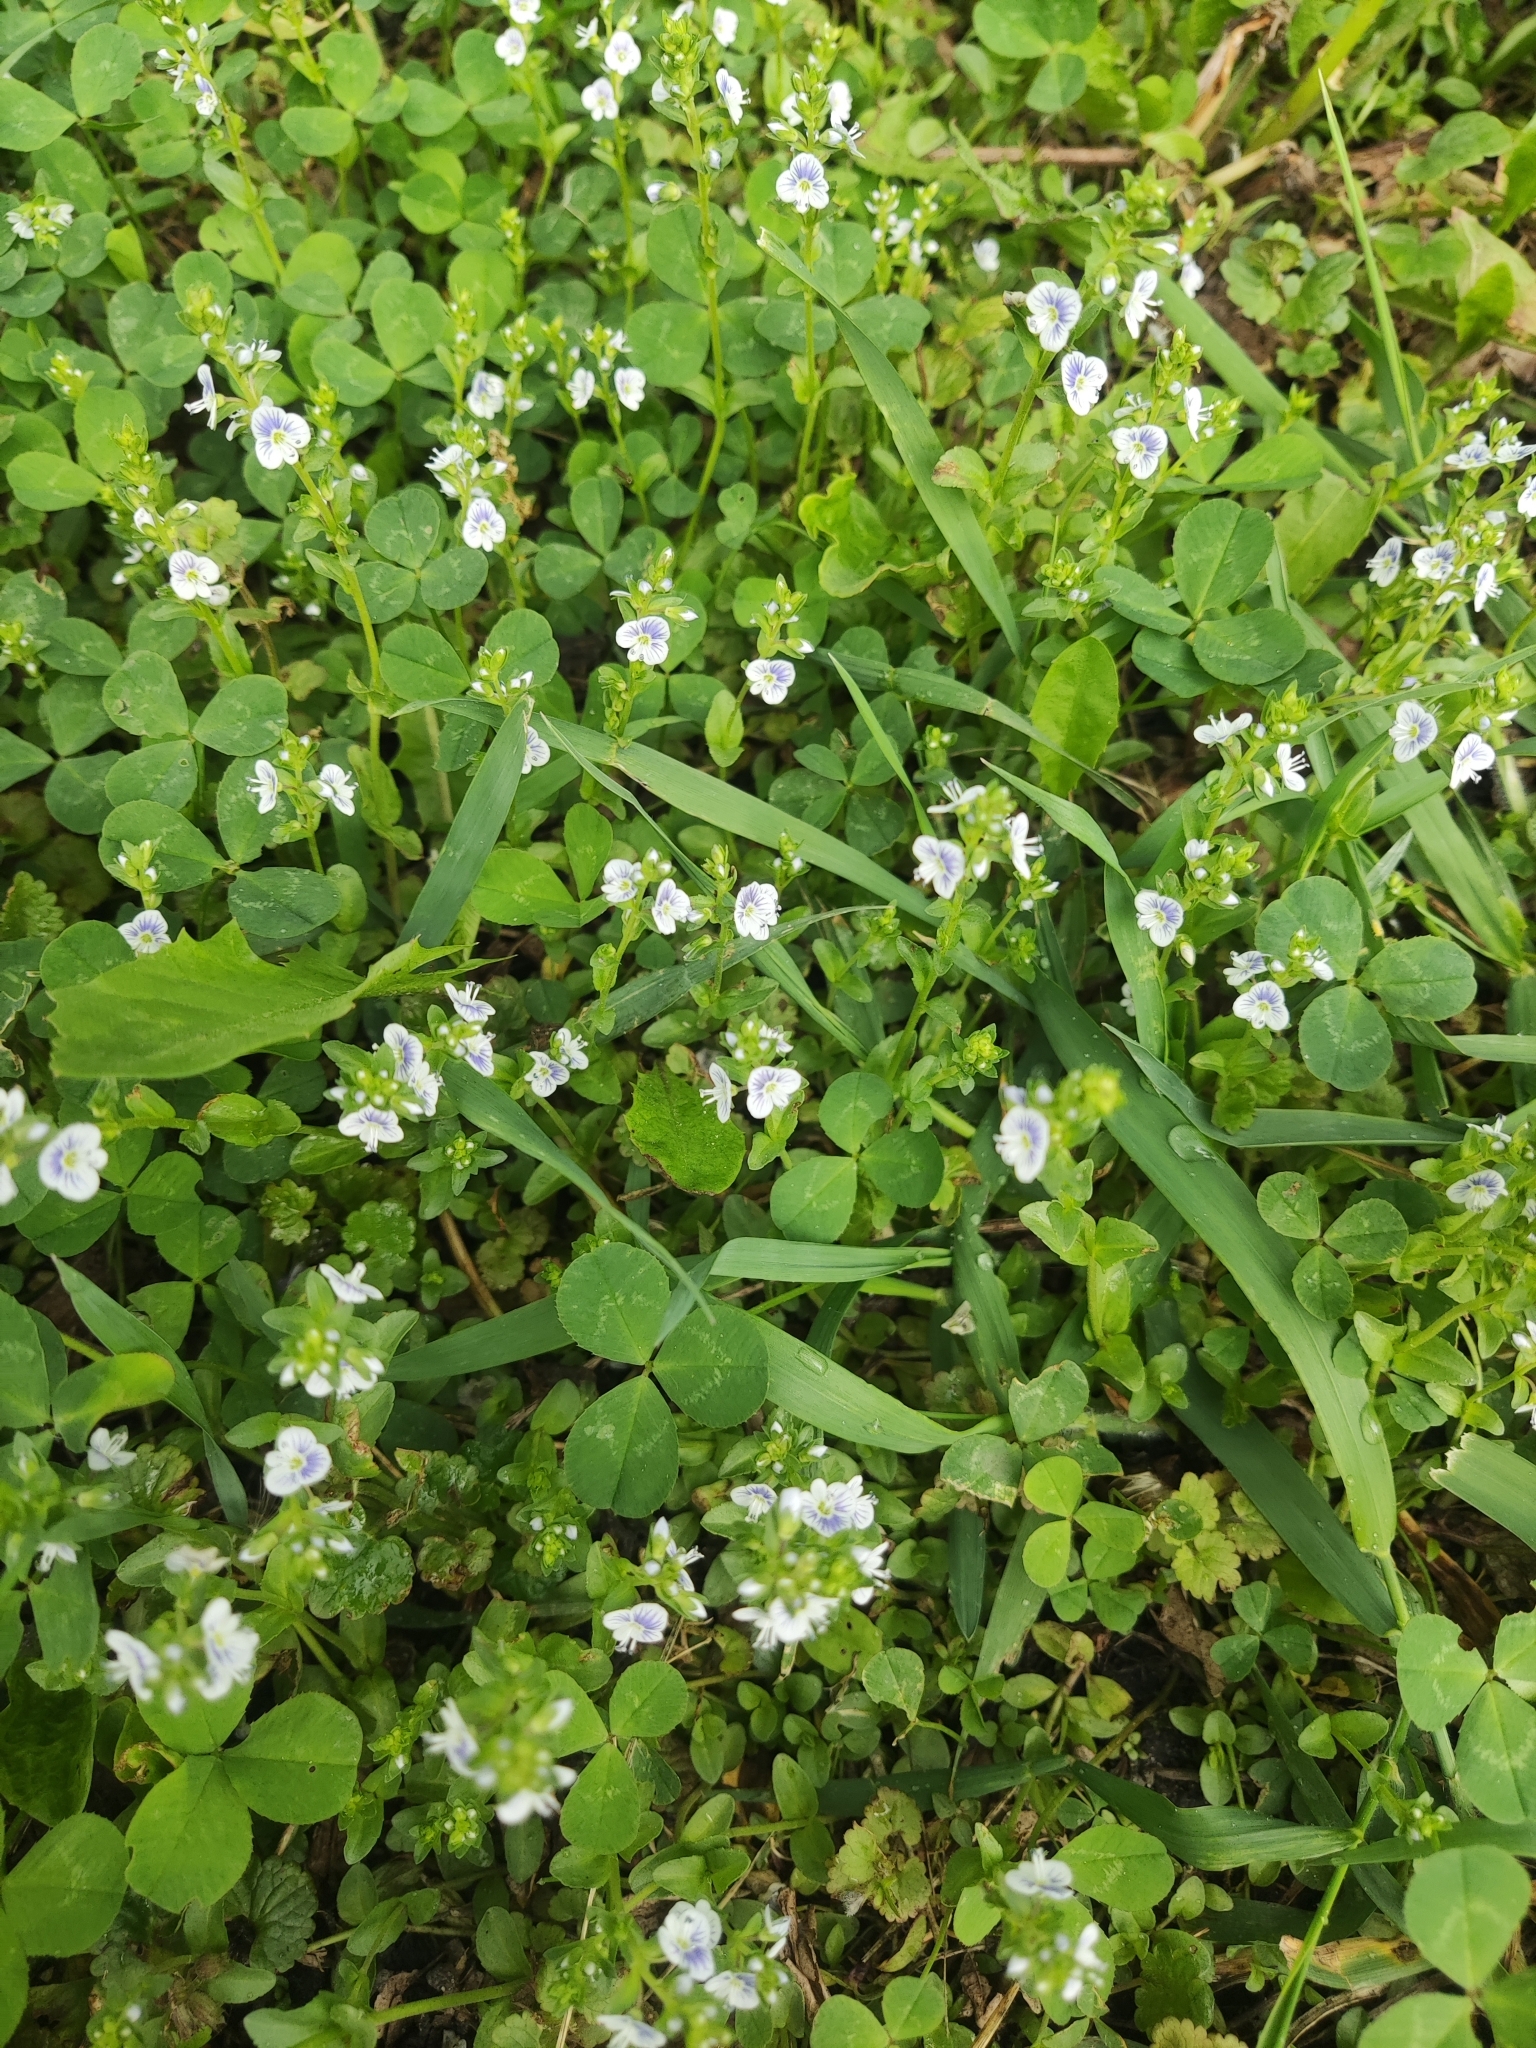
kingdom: Plantae
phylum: Tracheophyta
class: Magnoliopsida
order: Lamiales
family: Plantaginaceae
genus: Veronica
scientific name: Veronica serpyllifolia
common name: Thyme-leaved speedwell
